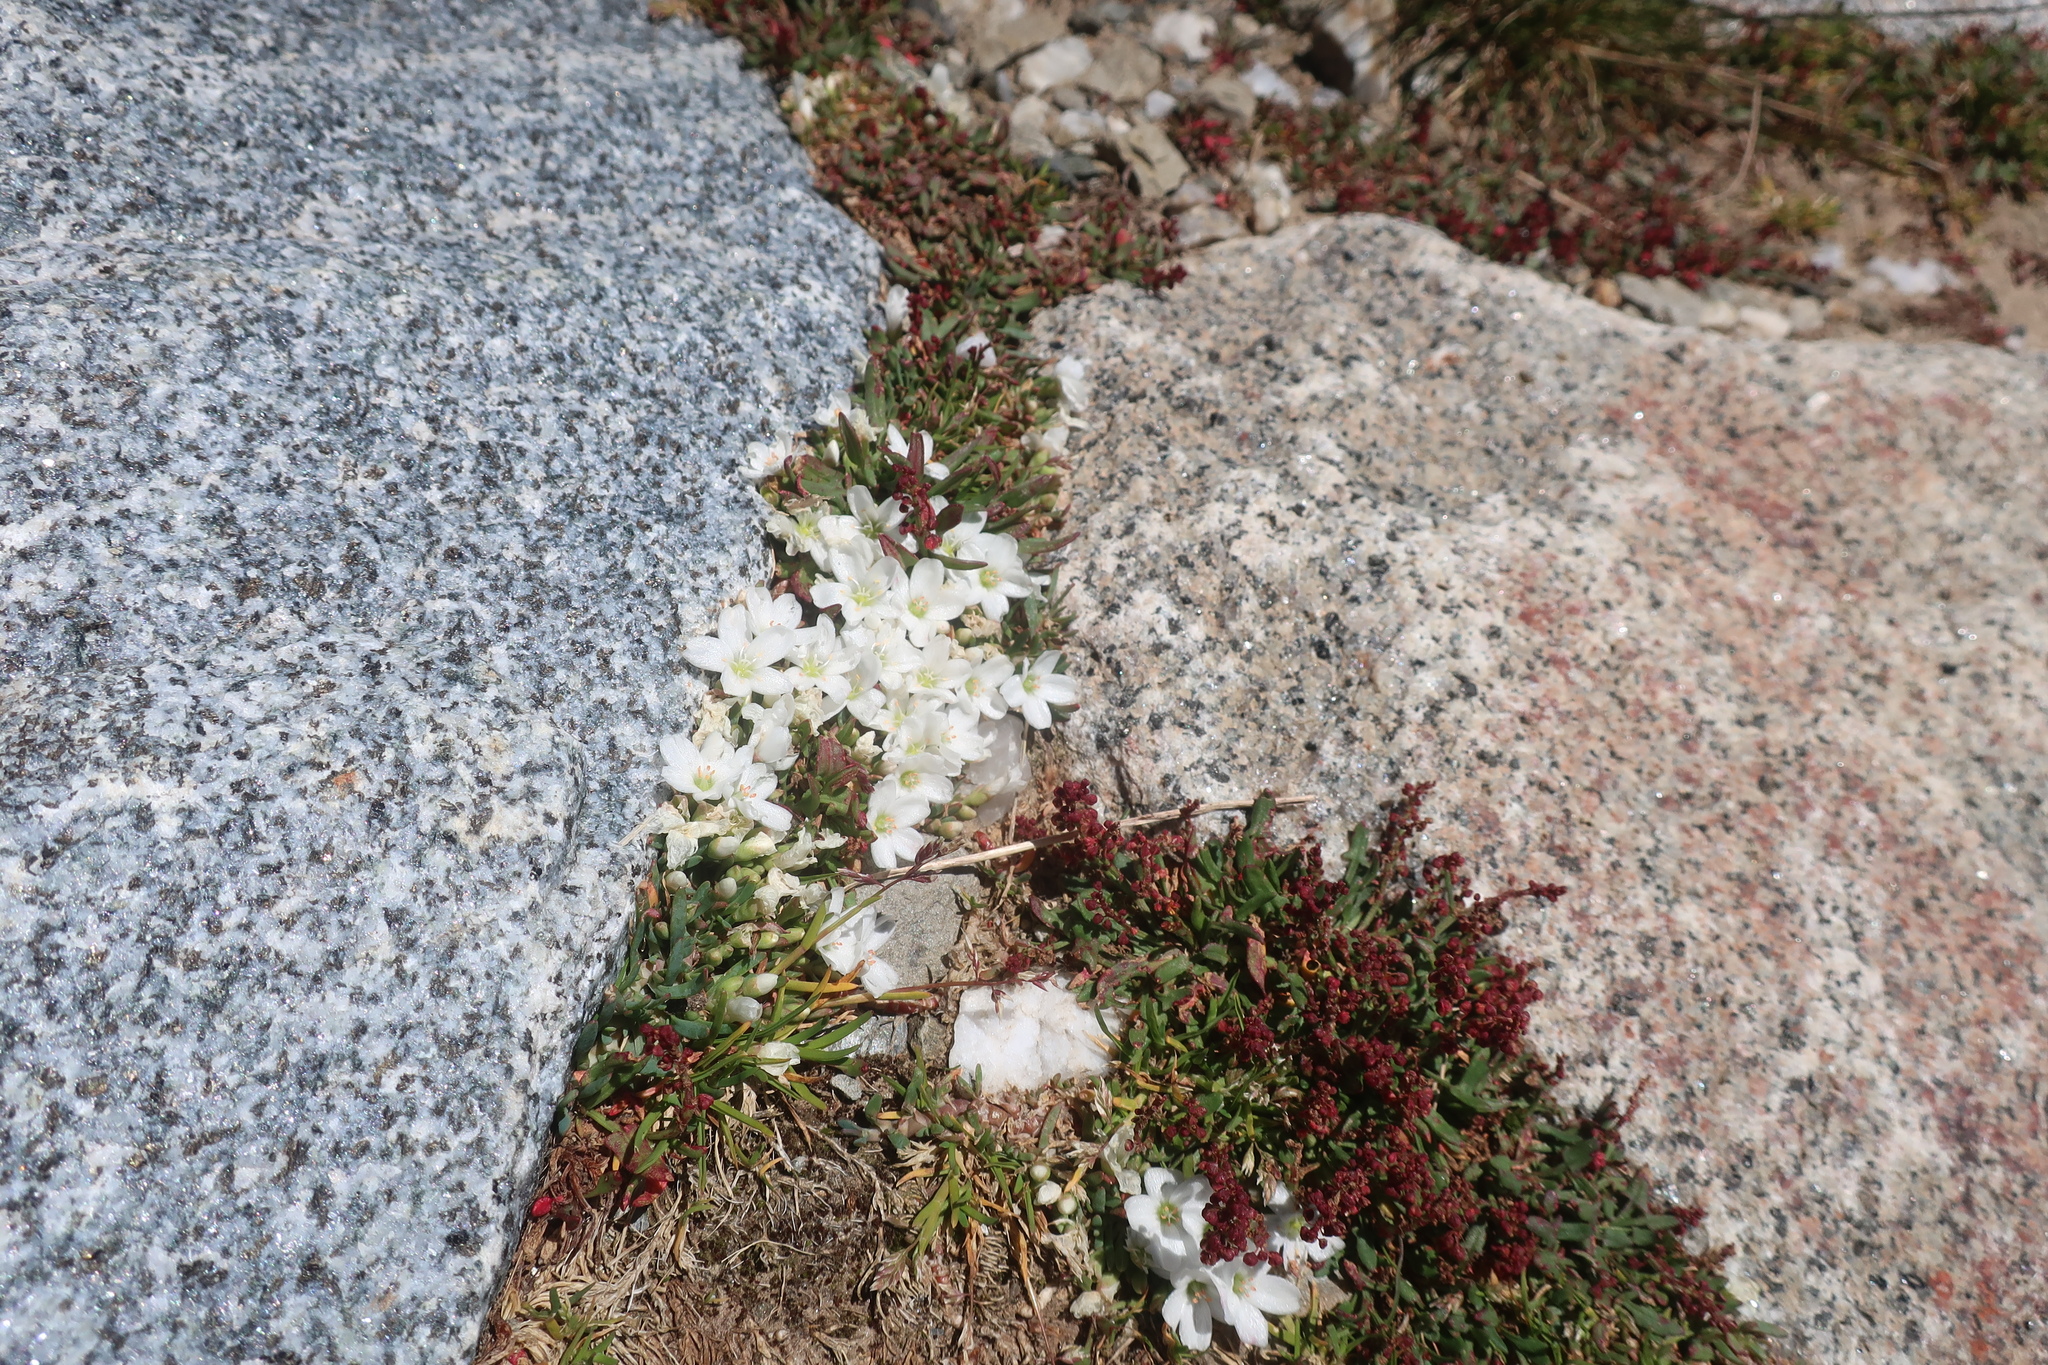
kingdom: Plantae
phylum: Tracheophyta
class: Magnoliopsida
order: Caryophyllales
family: Montiaceae
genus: Montia
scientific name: Montia australasica
